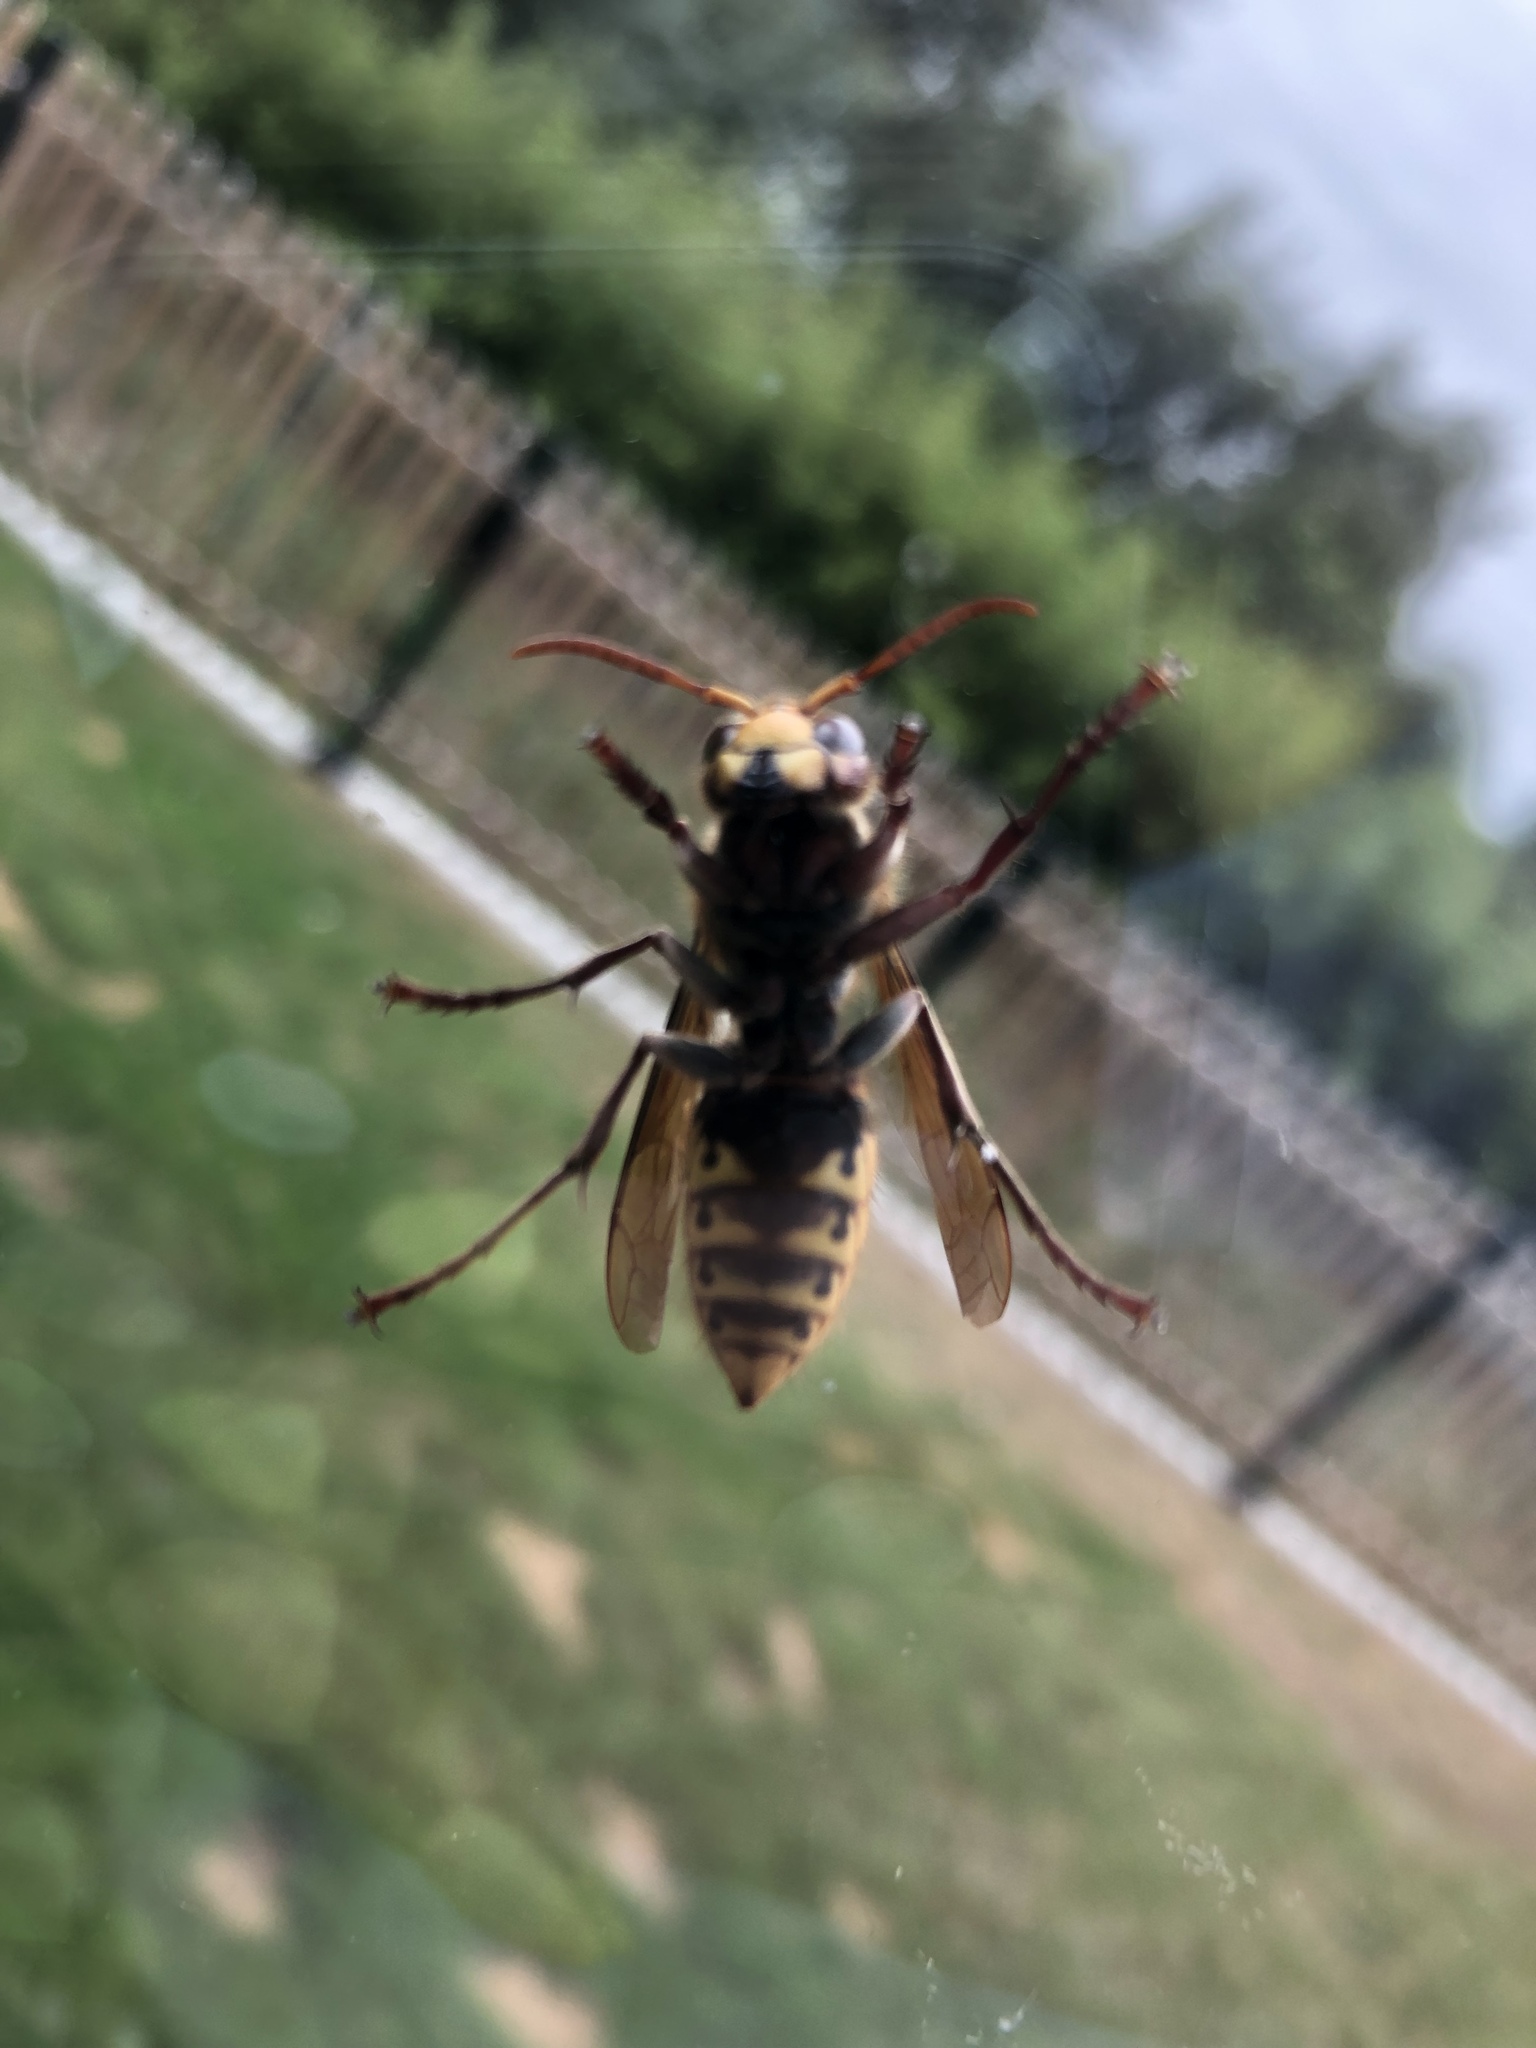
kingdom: Animalia
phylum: Arthropoda
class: Insecta
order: Hymenoptera
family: Vespidae
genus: Vespa
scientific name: Vespa crabro
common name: Hornet
